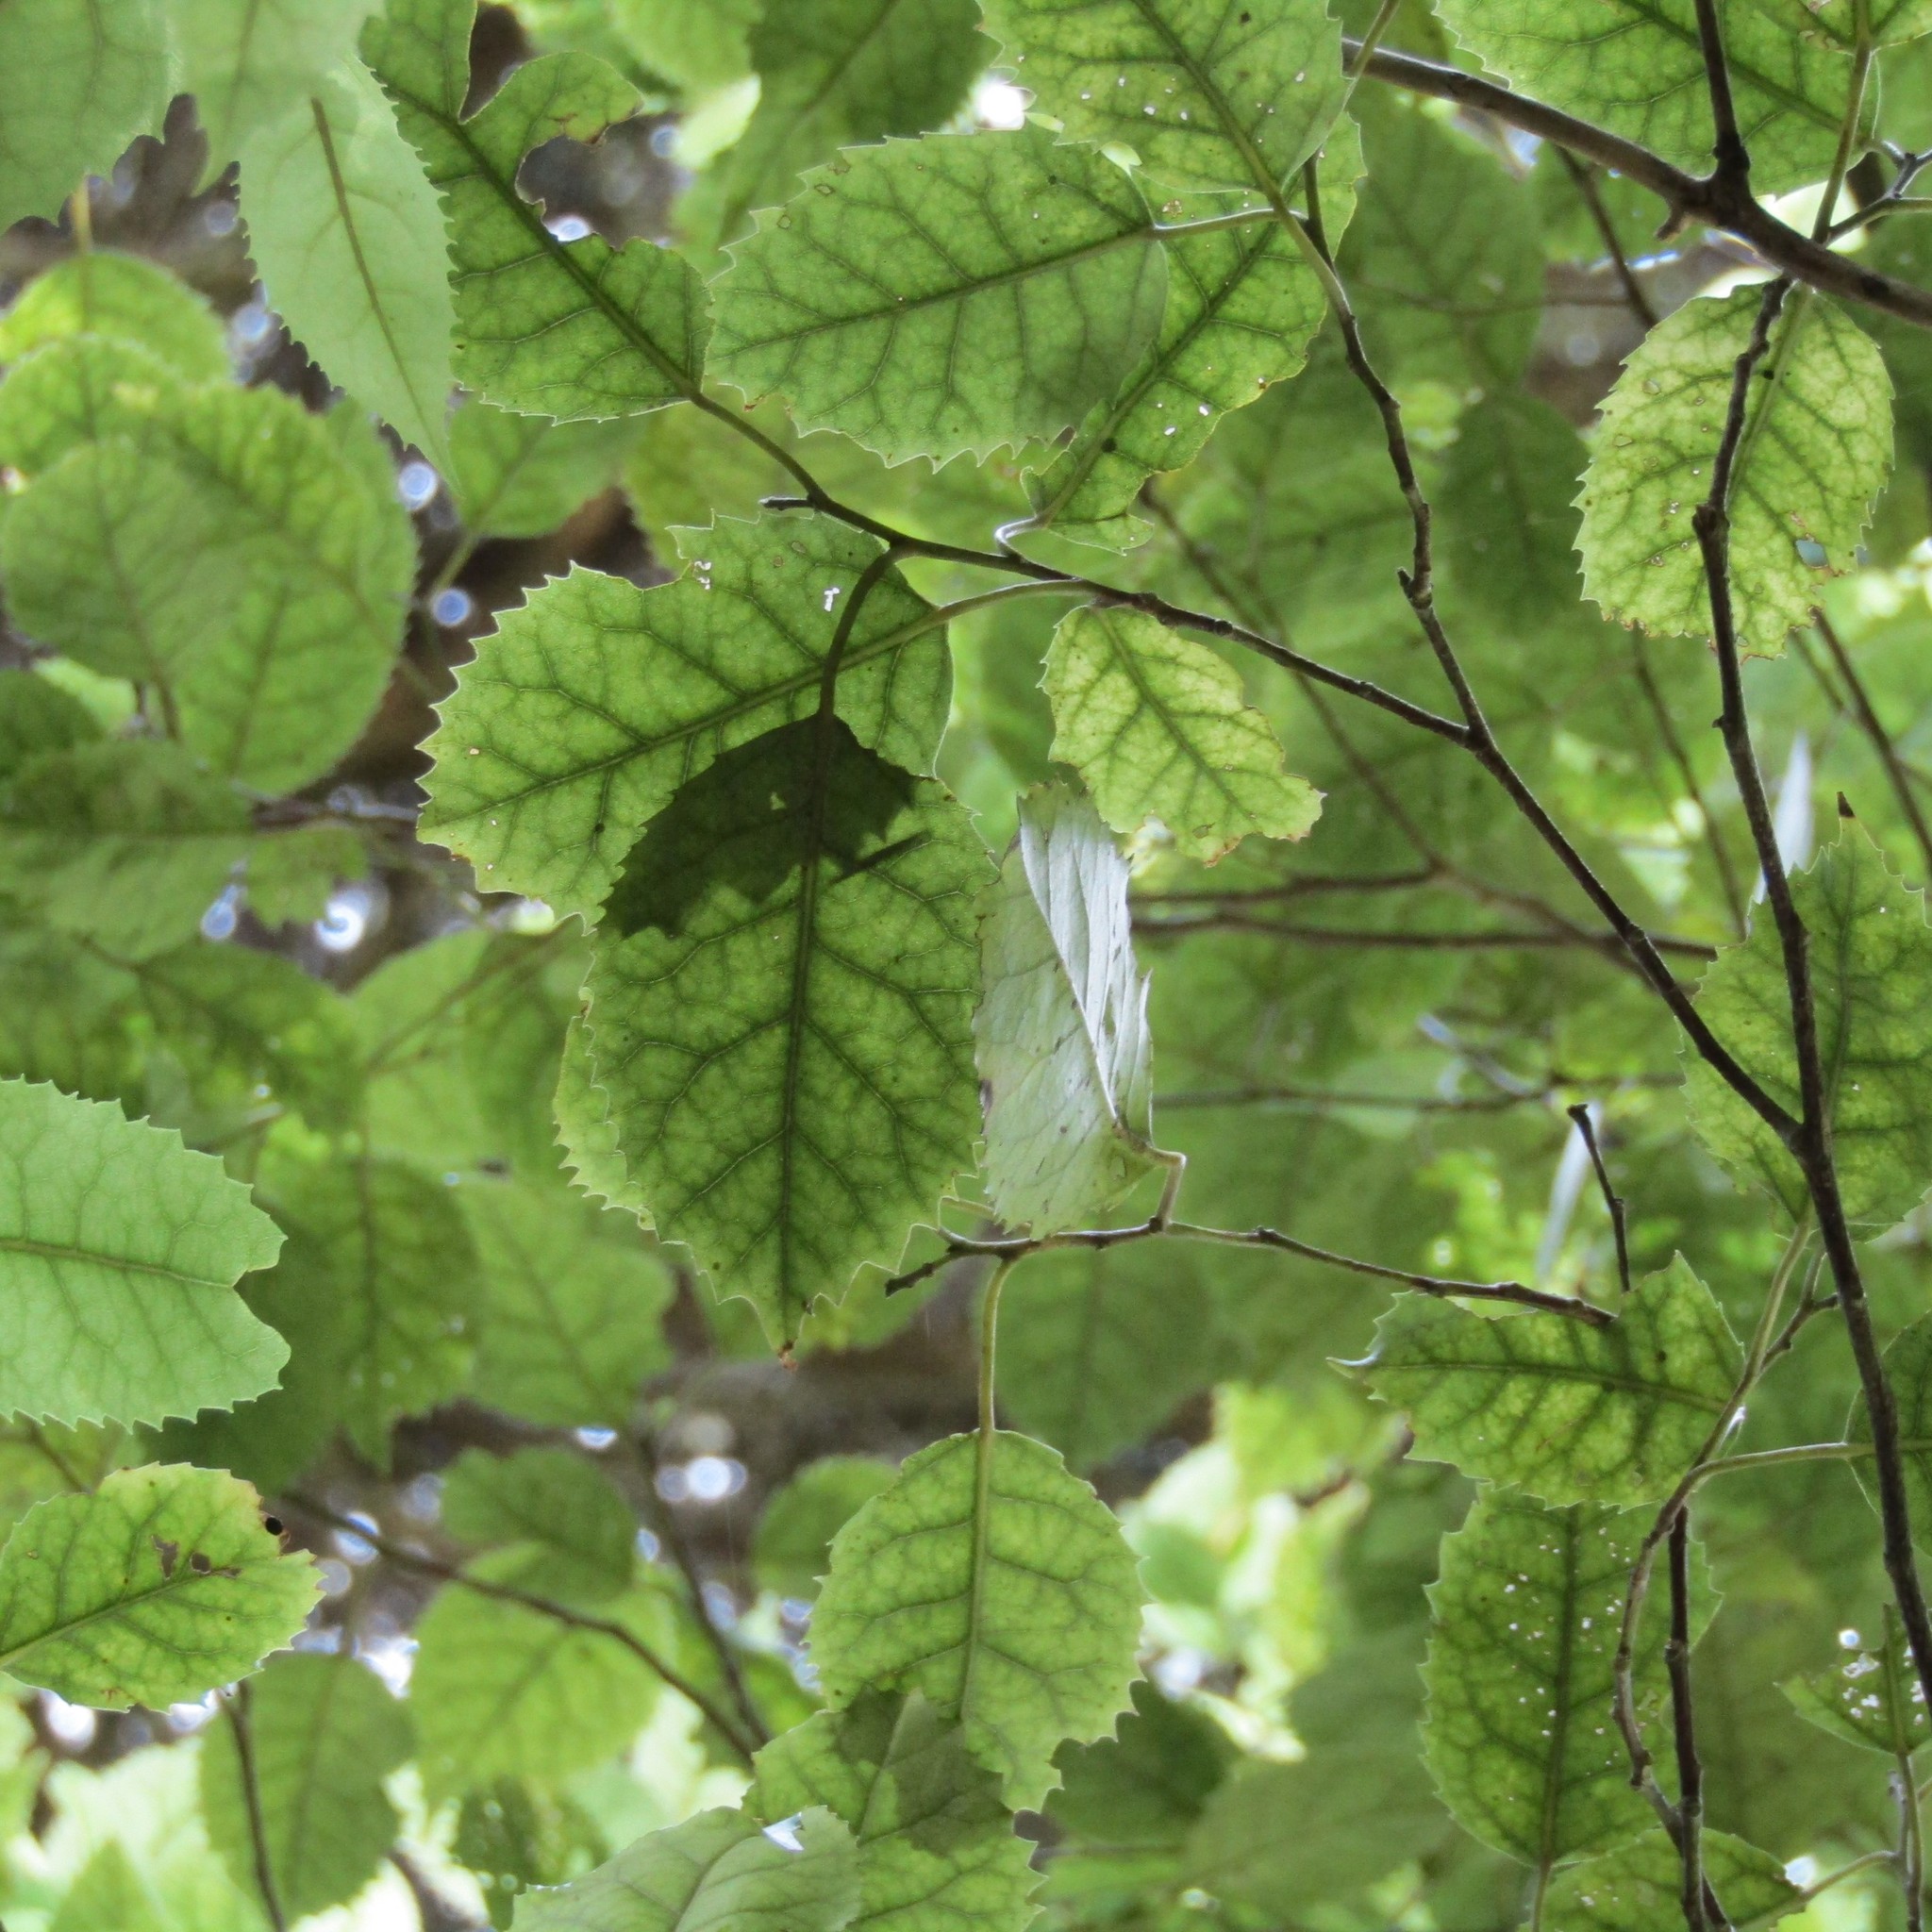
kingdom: Plantae
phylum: Tracheophyta
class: Magnoliopsida
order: Malvales
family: Malvaceae
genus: Hoheria
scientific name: Hoheria populnea
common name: Lacebark
